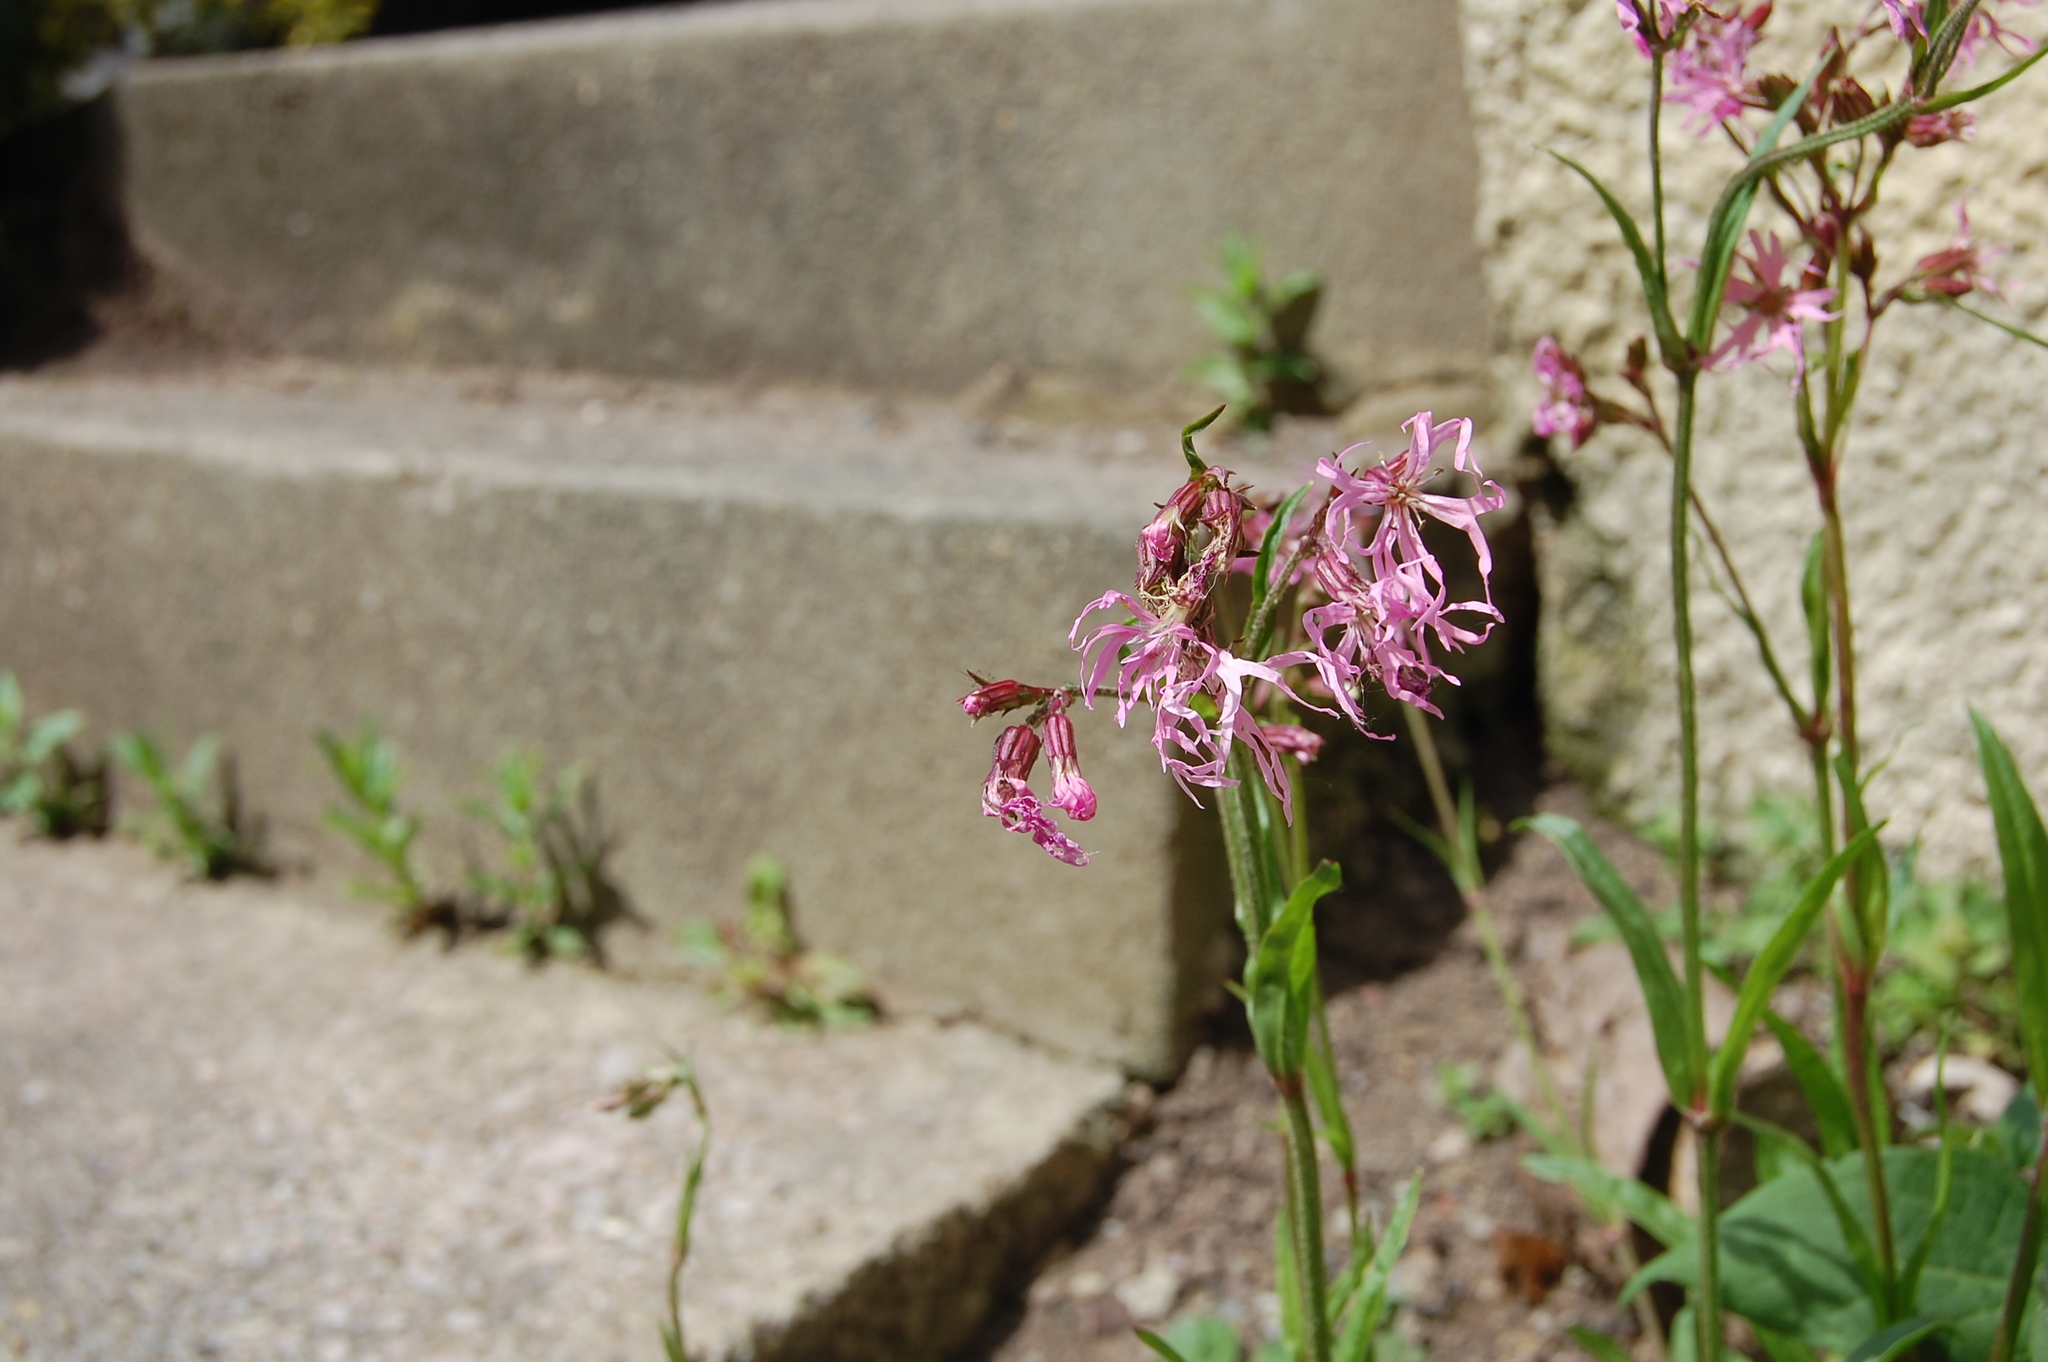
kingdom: Plantae
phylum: Tracheophyta
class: Magnoliopsida
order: Caryophyllales
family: Caryophyllaceae
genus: Silene
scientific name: Silene flos-cuculi
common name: Ragged-robin
